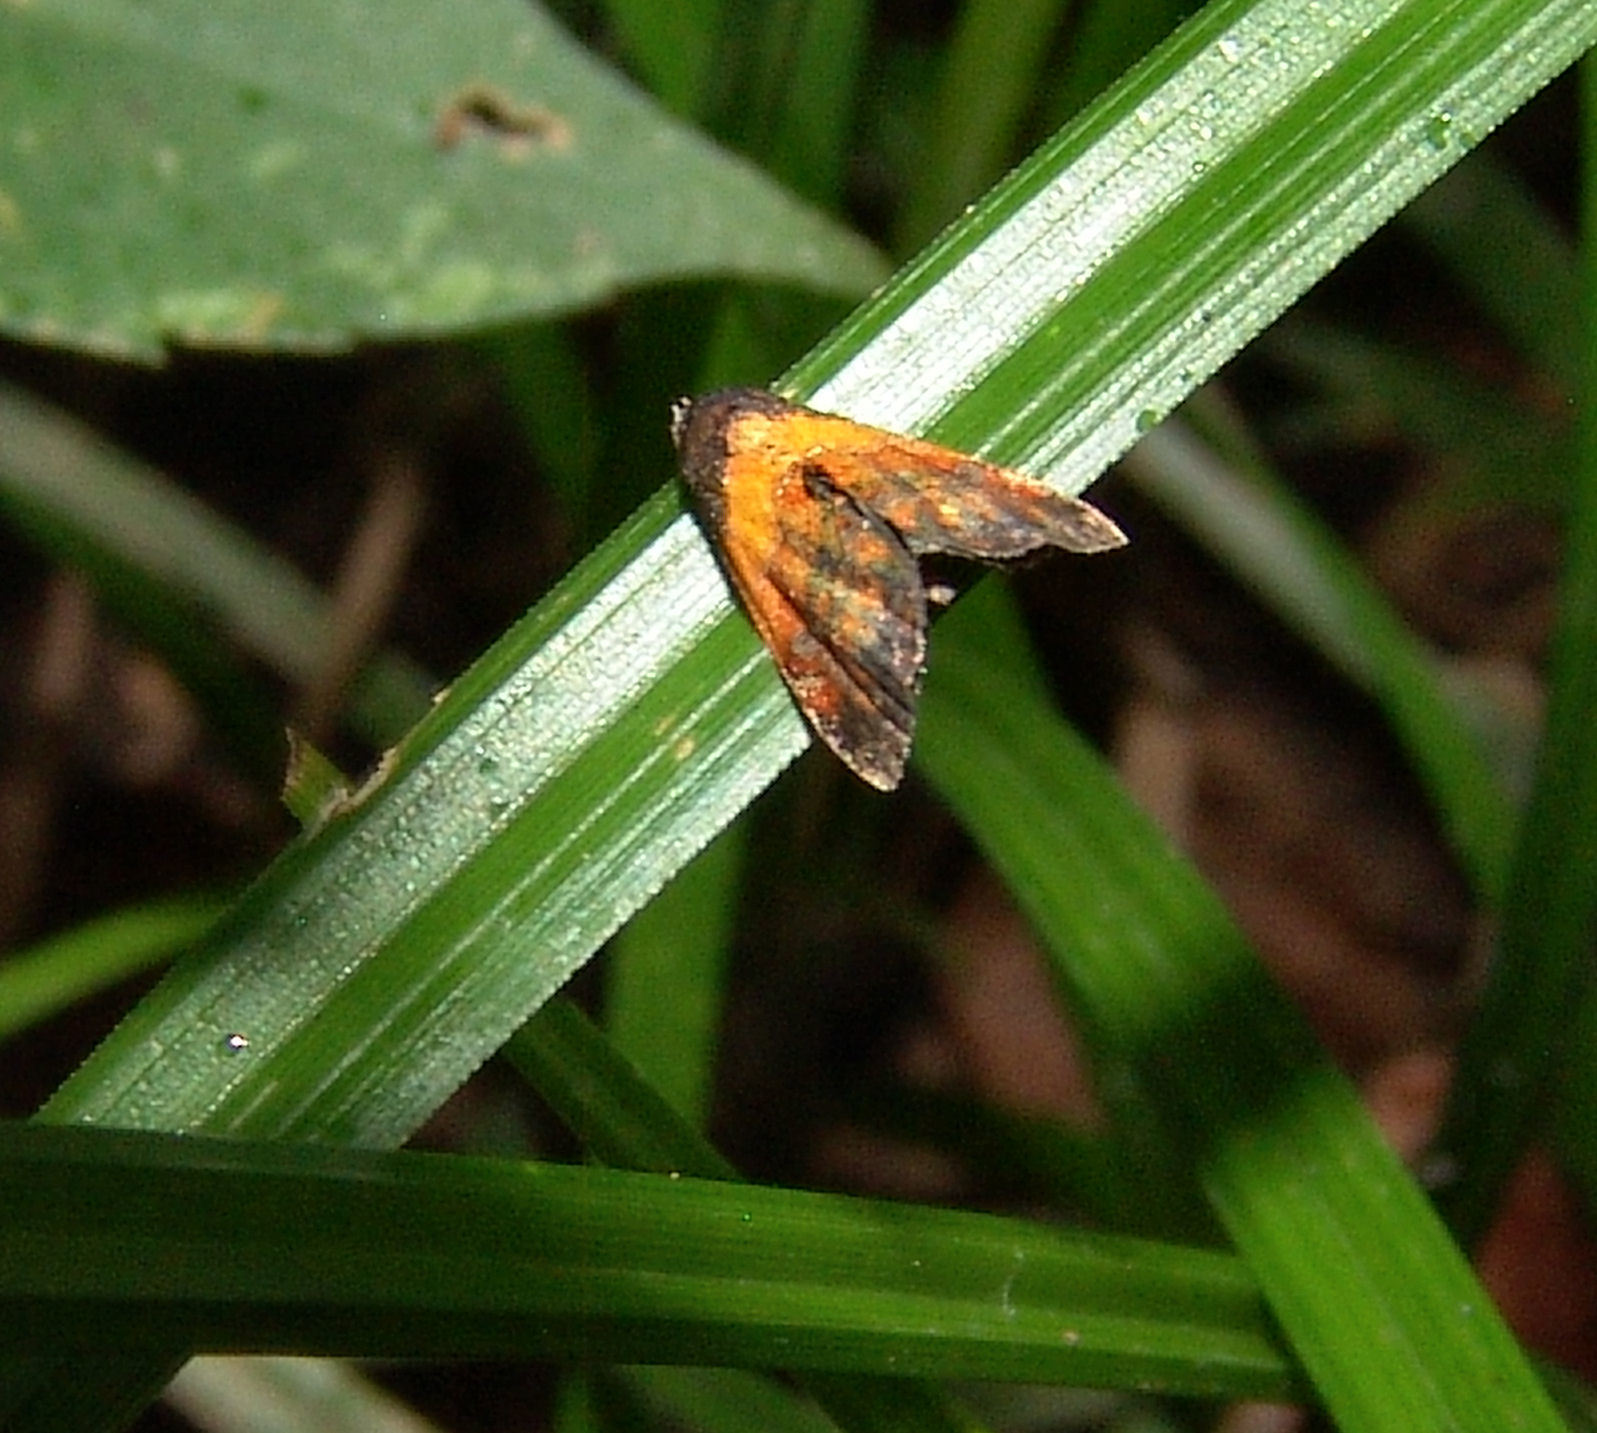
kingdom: Animalia
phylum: Arthropoda
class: Insecta
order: Lepidoptera
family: Noctuidae
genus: Tripudia
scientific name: Tripudia flavofasciata
